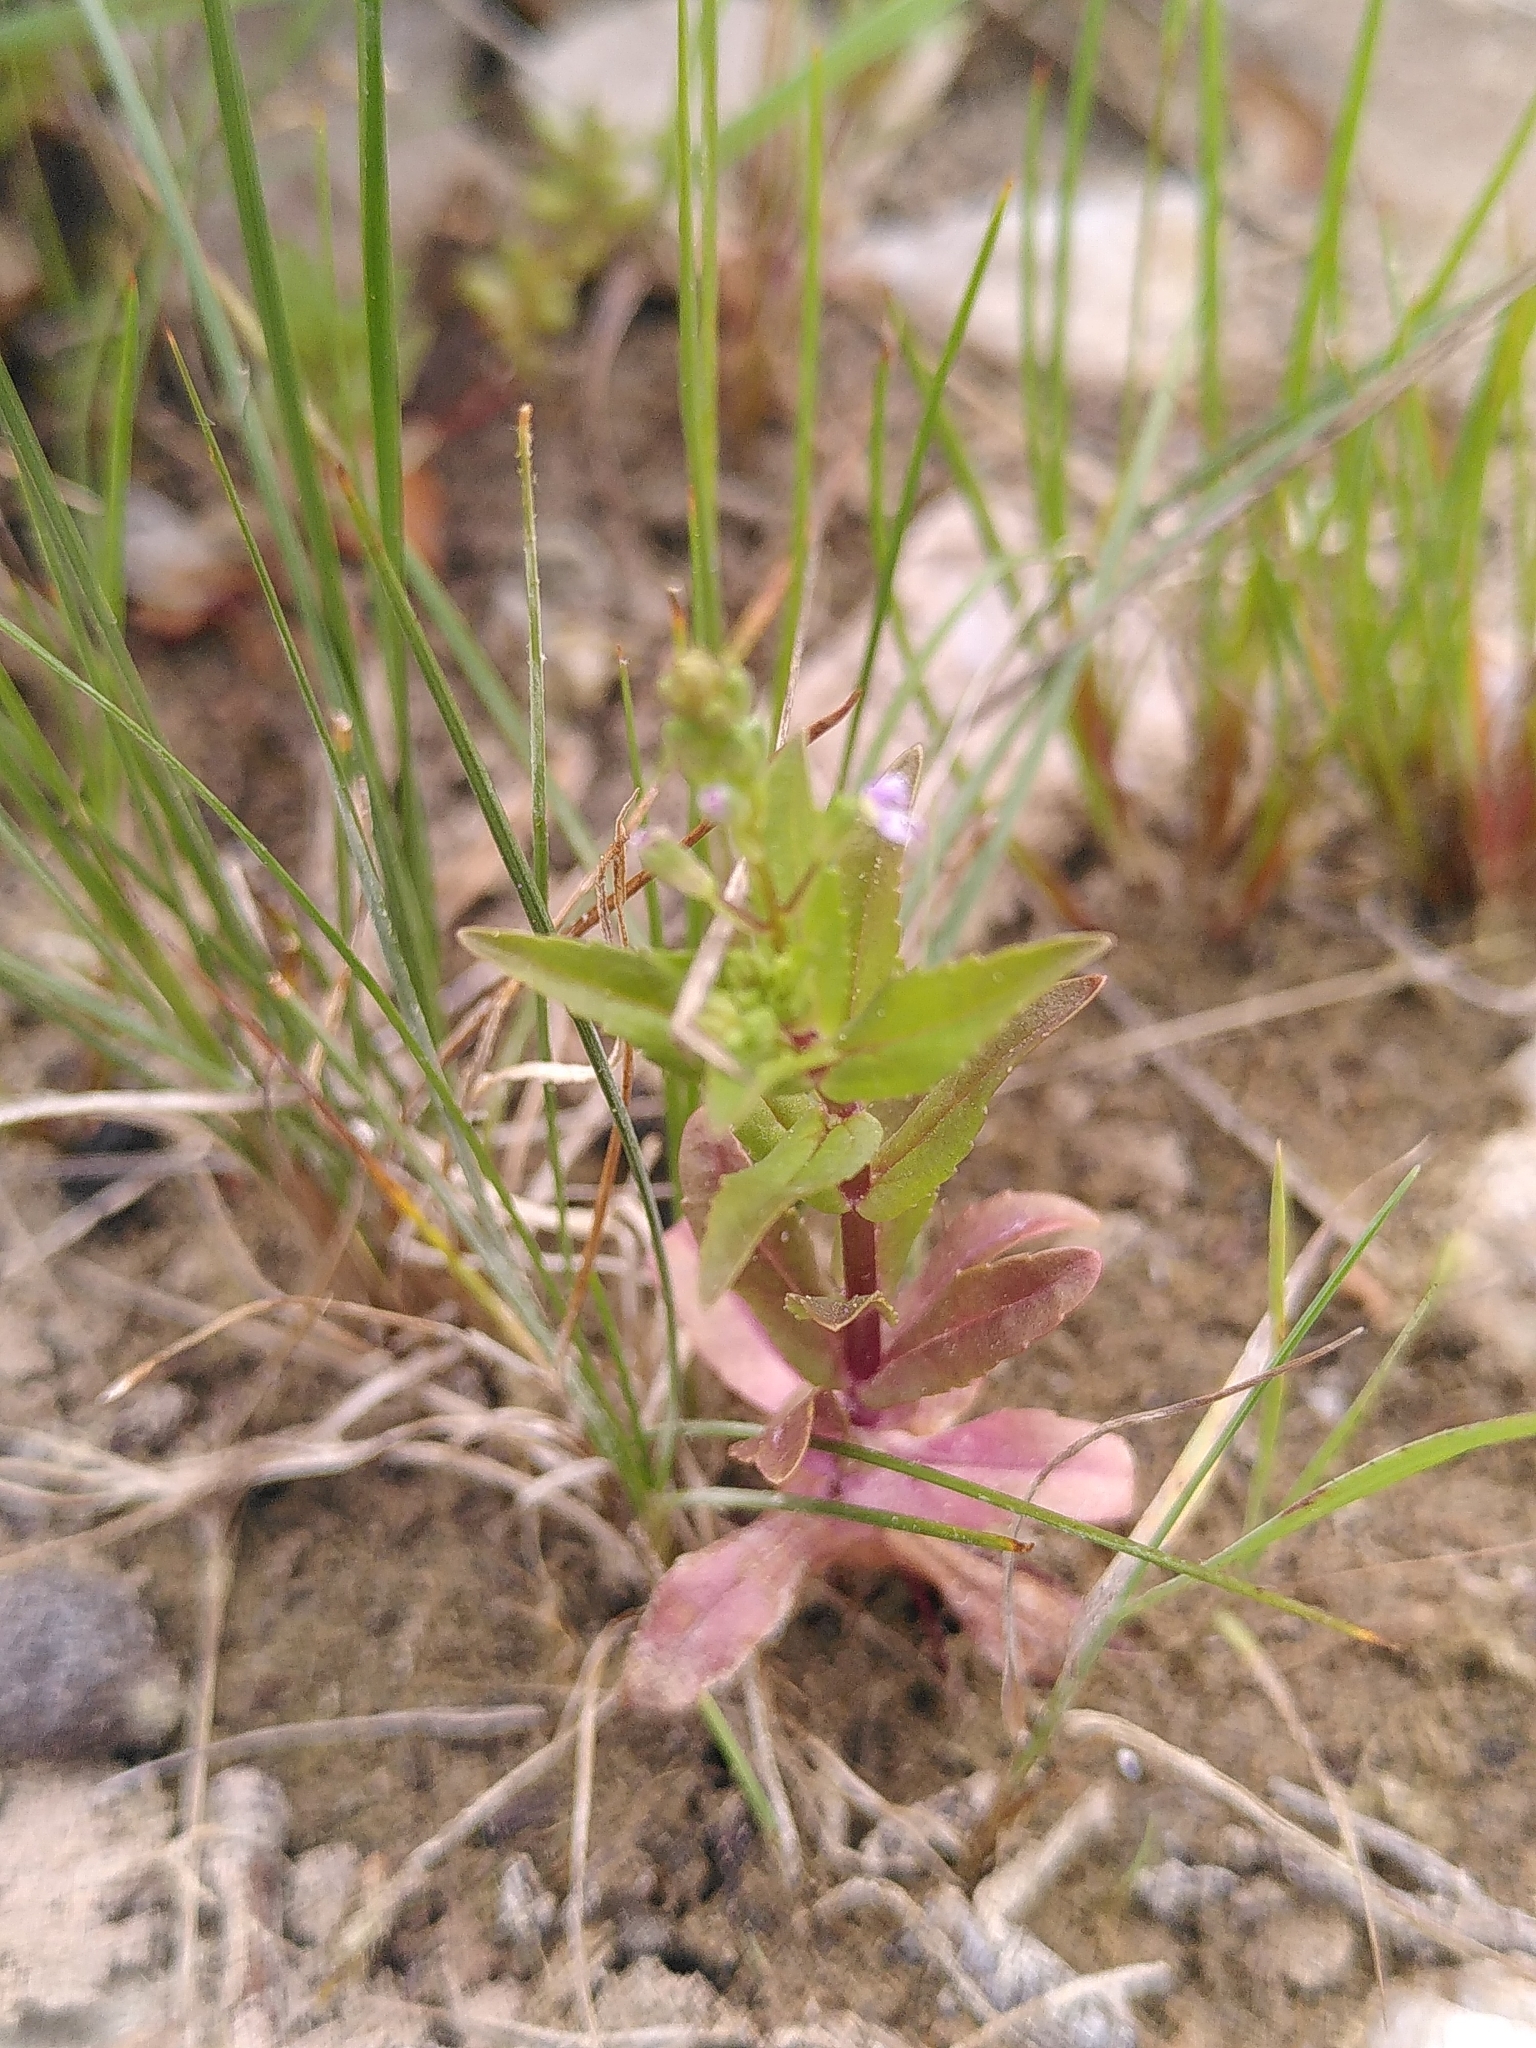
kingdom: Plantae
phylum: Tracheophyta
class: Magnoliopsida
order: Lamiales
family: Plantaginaceae
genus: Veronica
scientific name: Veronica anagallis-aquatica
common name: Water speedwell
